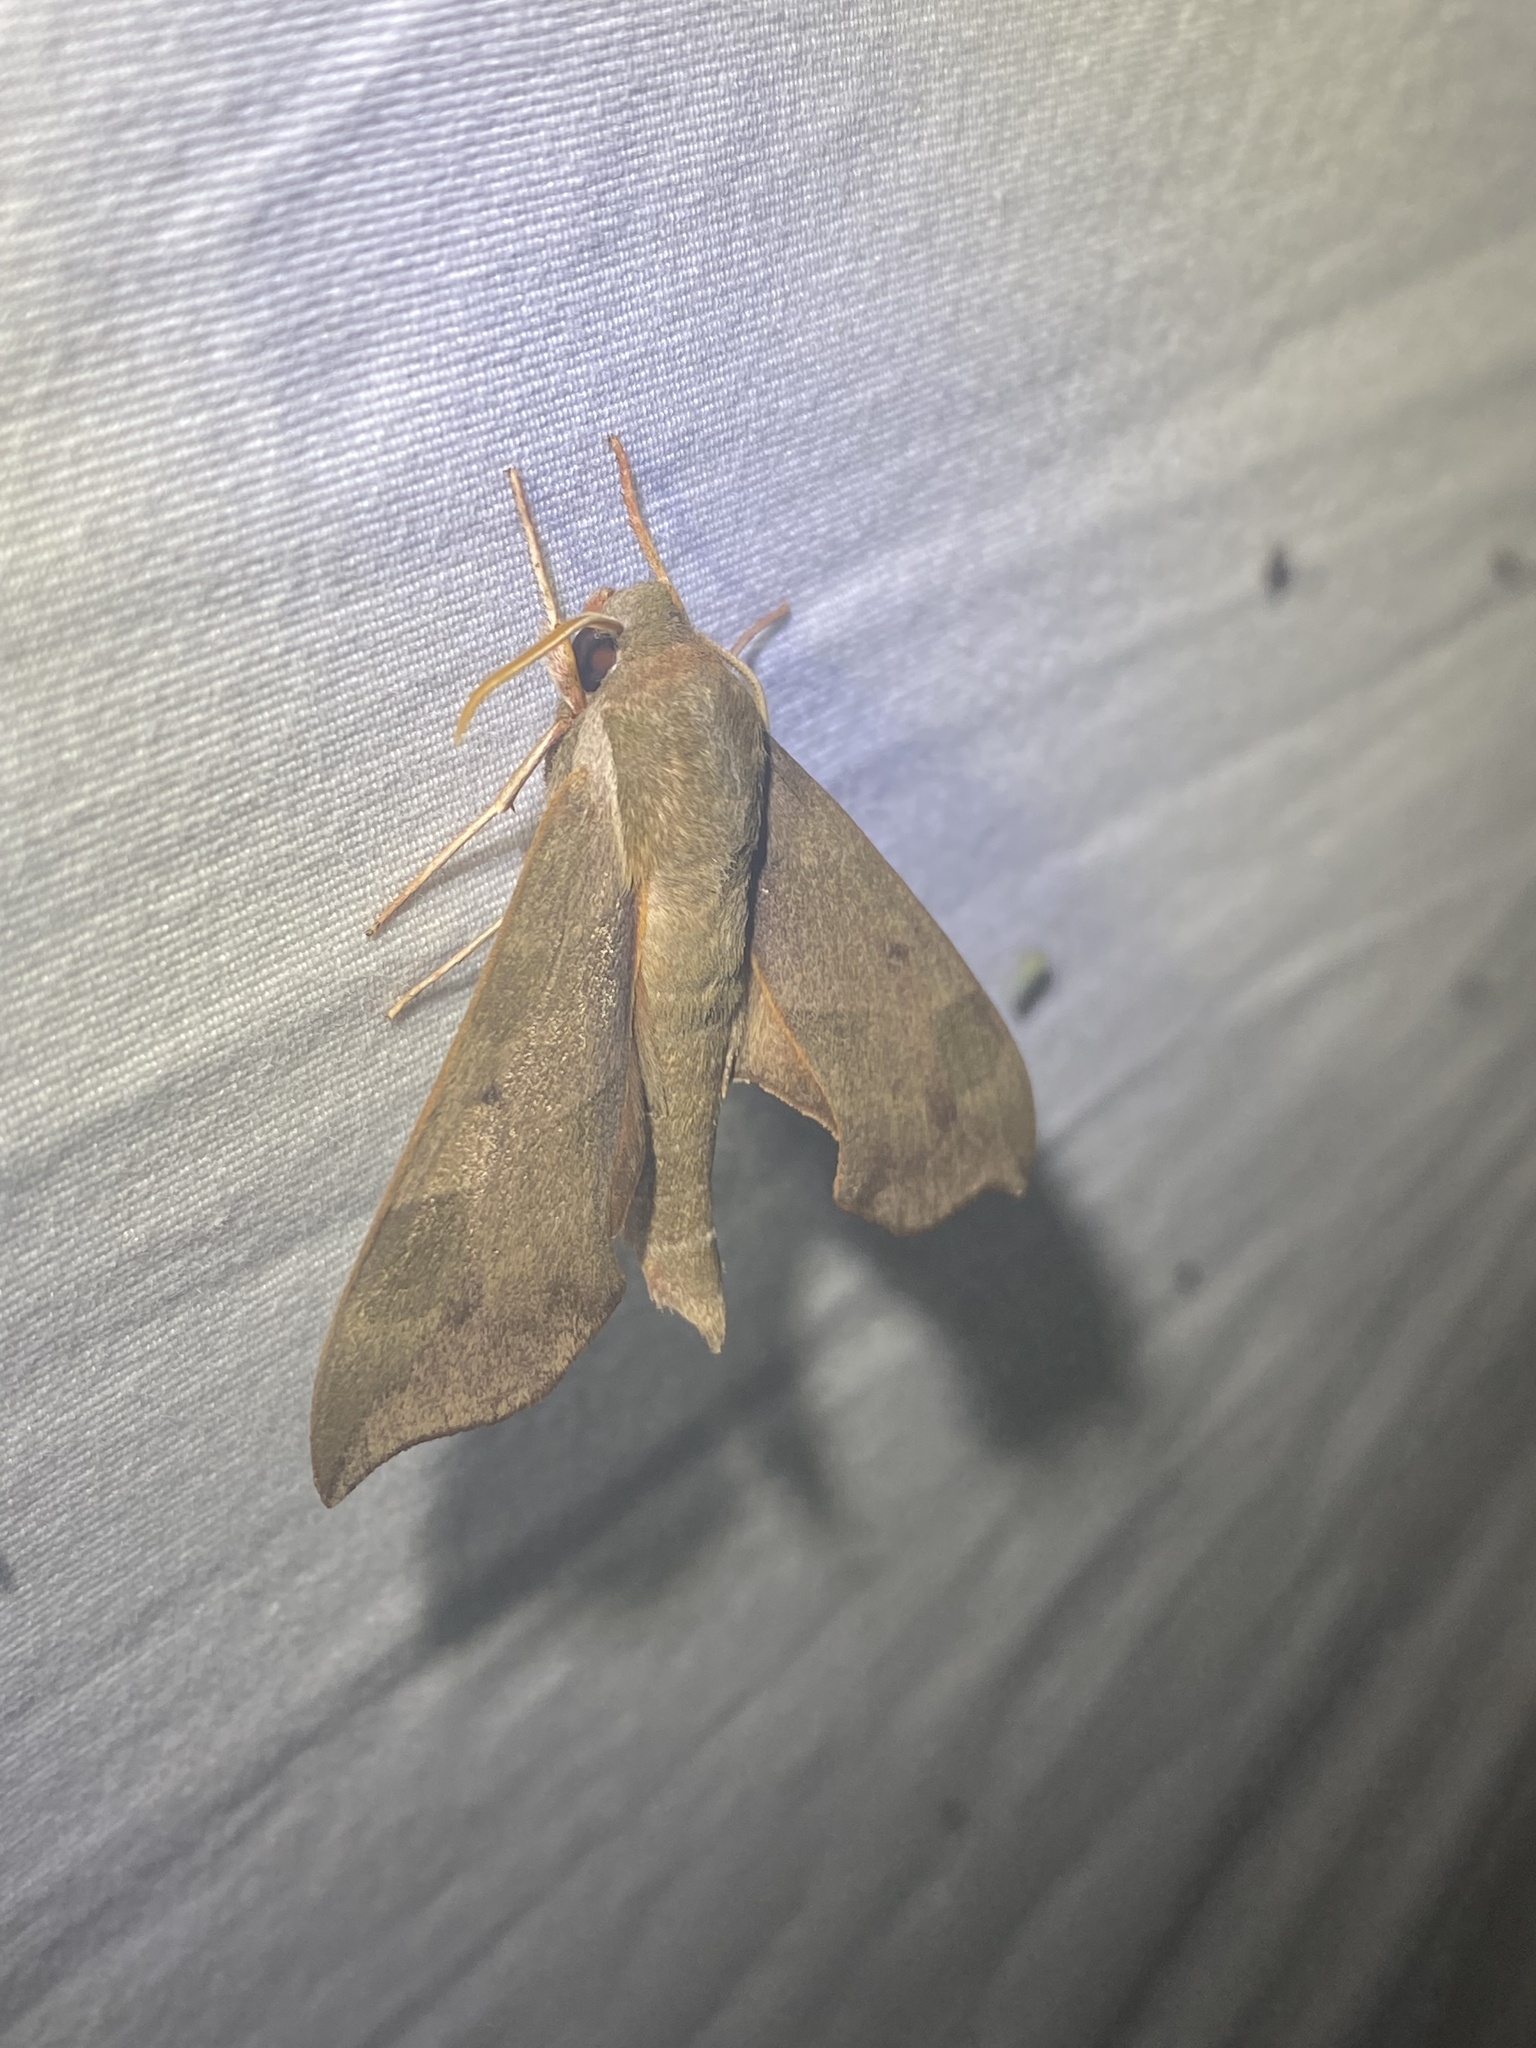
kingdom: Animalia
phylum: Arthropoda
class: Insecta
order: Lepidoptera
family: Sphingidae
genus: Darapsa
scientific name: Darapsa myron
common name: Hog sphinx
